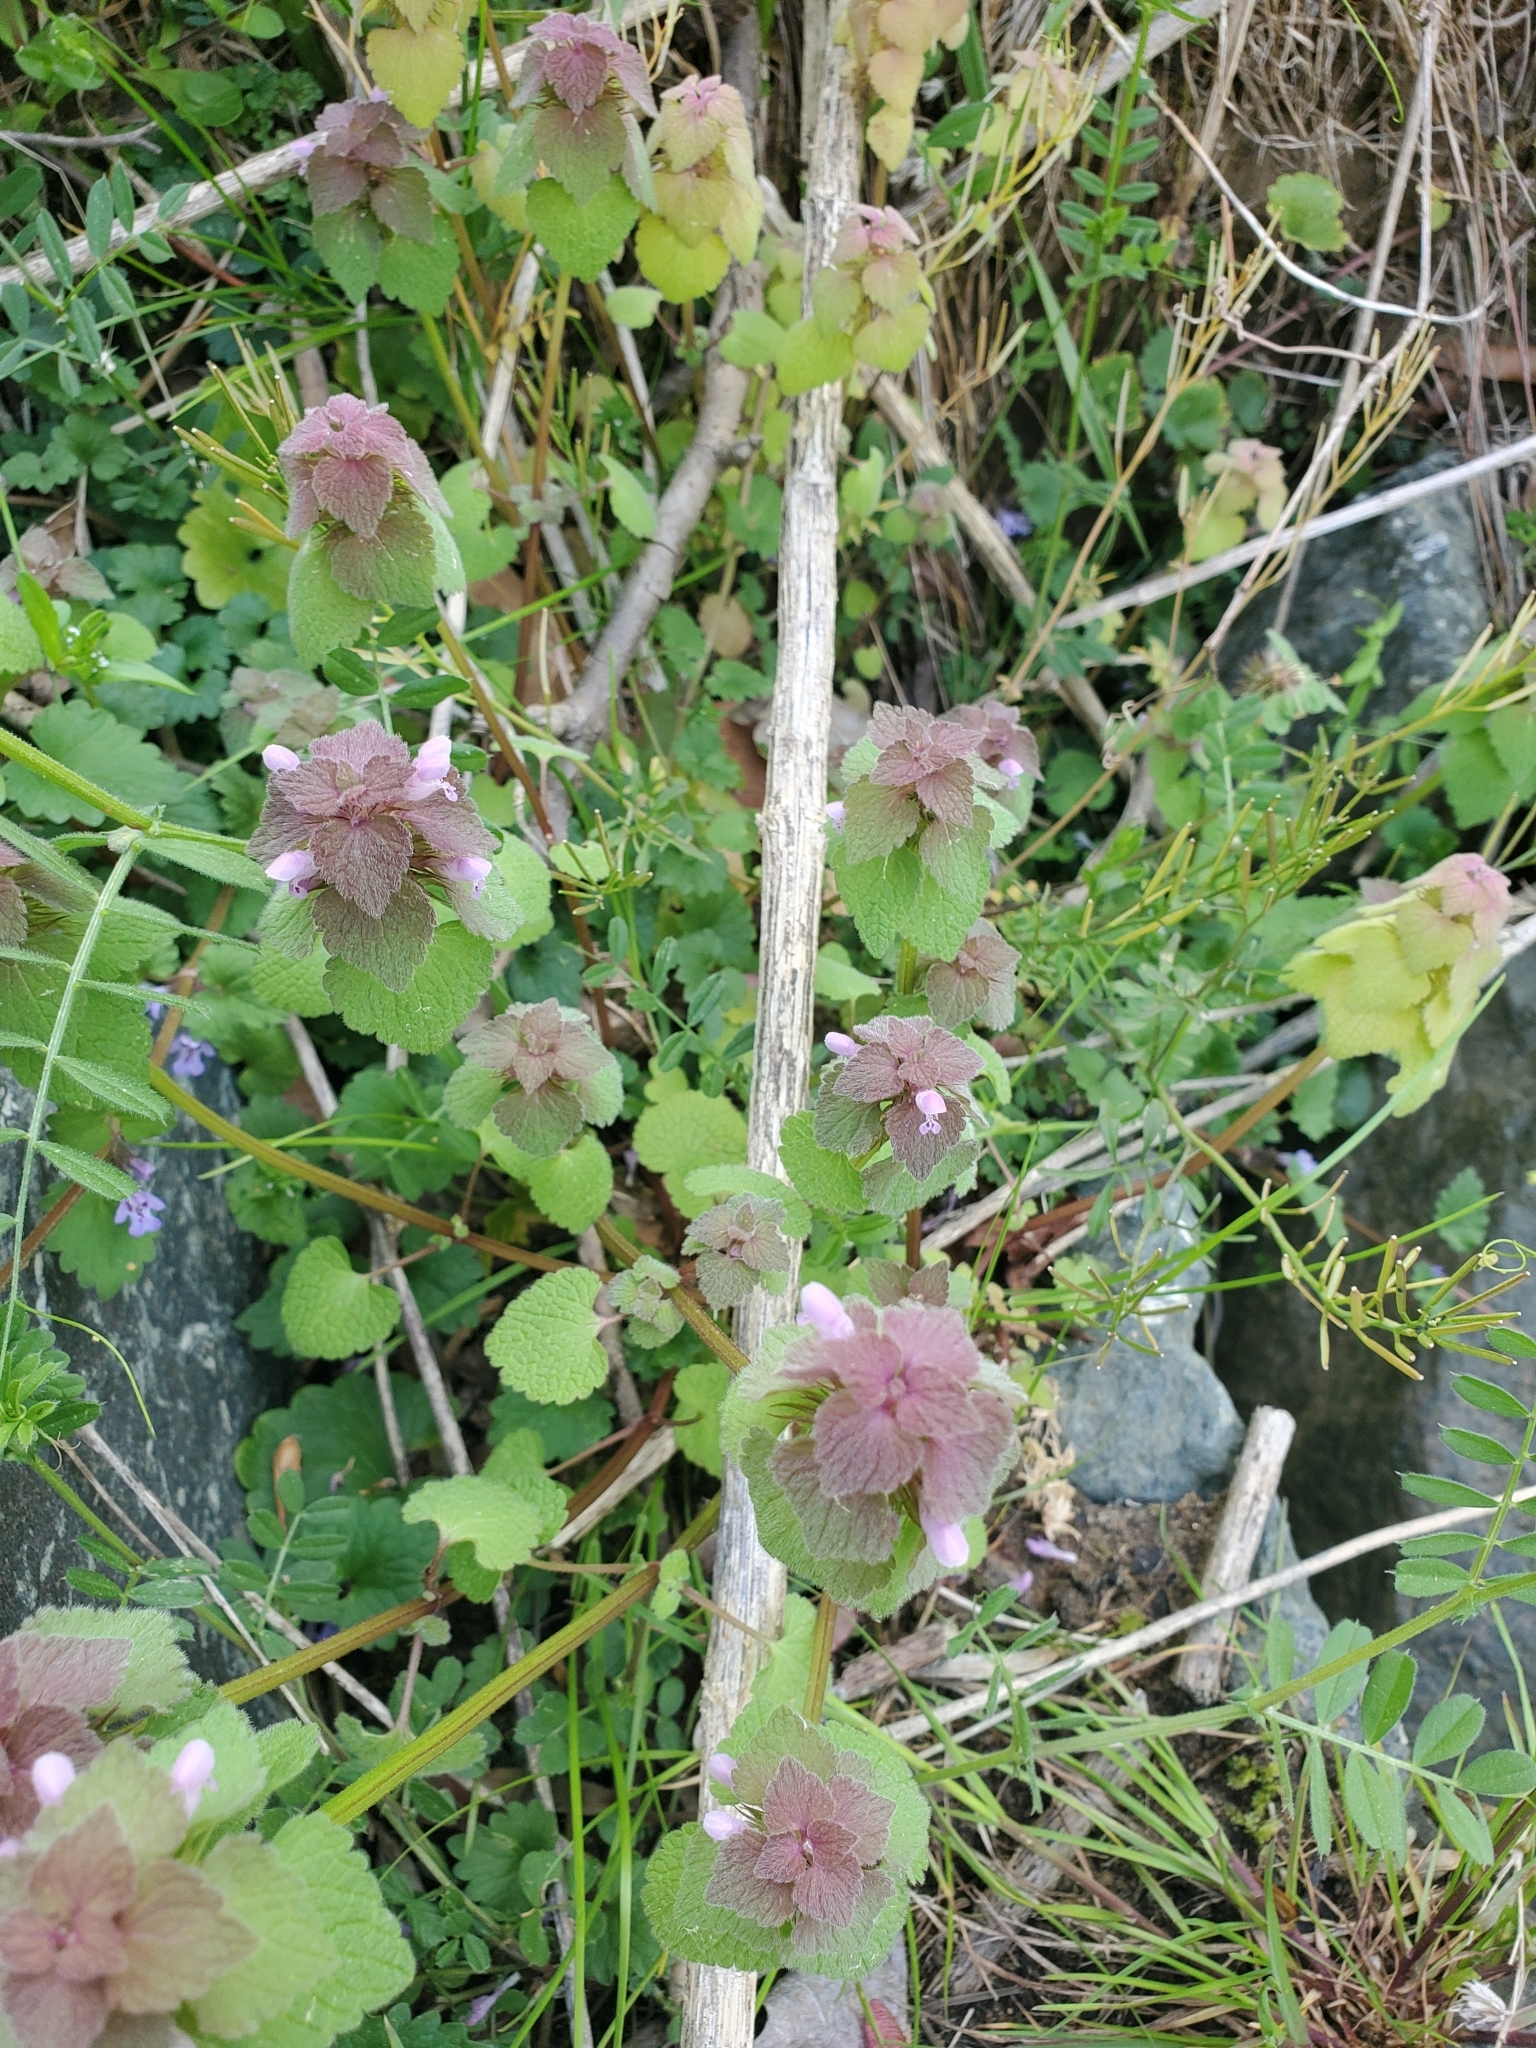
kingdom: Plantae
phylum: Tracheophyta
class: Magnoliopsida
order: Lamiales
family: Lamiaceae
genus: Lamium
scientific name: Lamium purpureum
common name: Red dead-nettle
